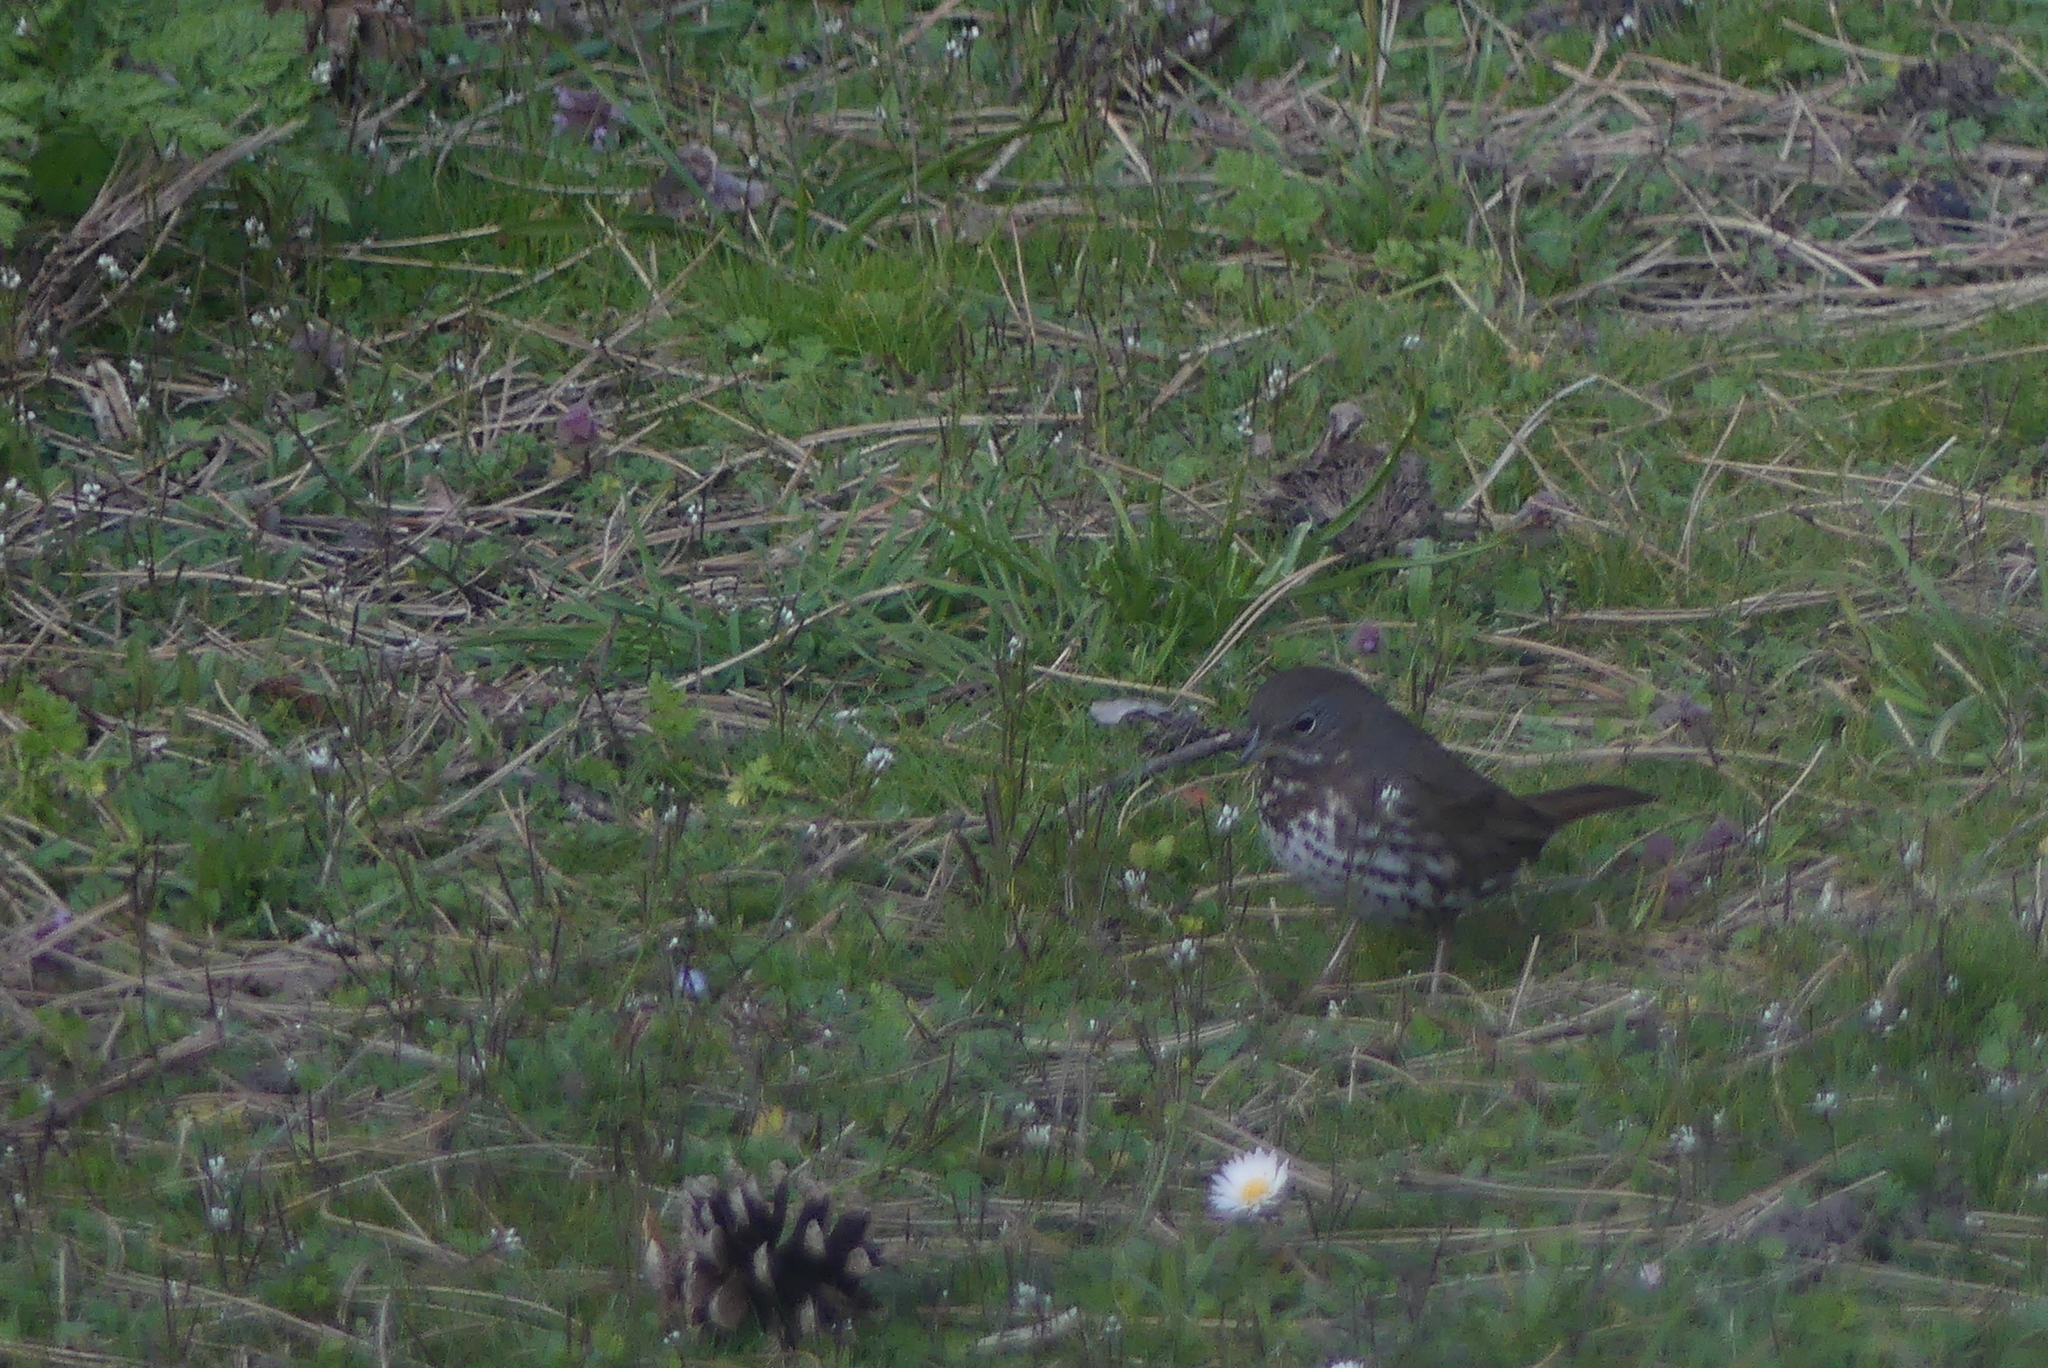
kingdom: Animalia
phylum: Chordata
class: Aves
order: Passeriformes
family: Passerellidae
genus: Passerella
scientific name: Passerella iliaca
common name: Fox sparrow
